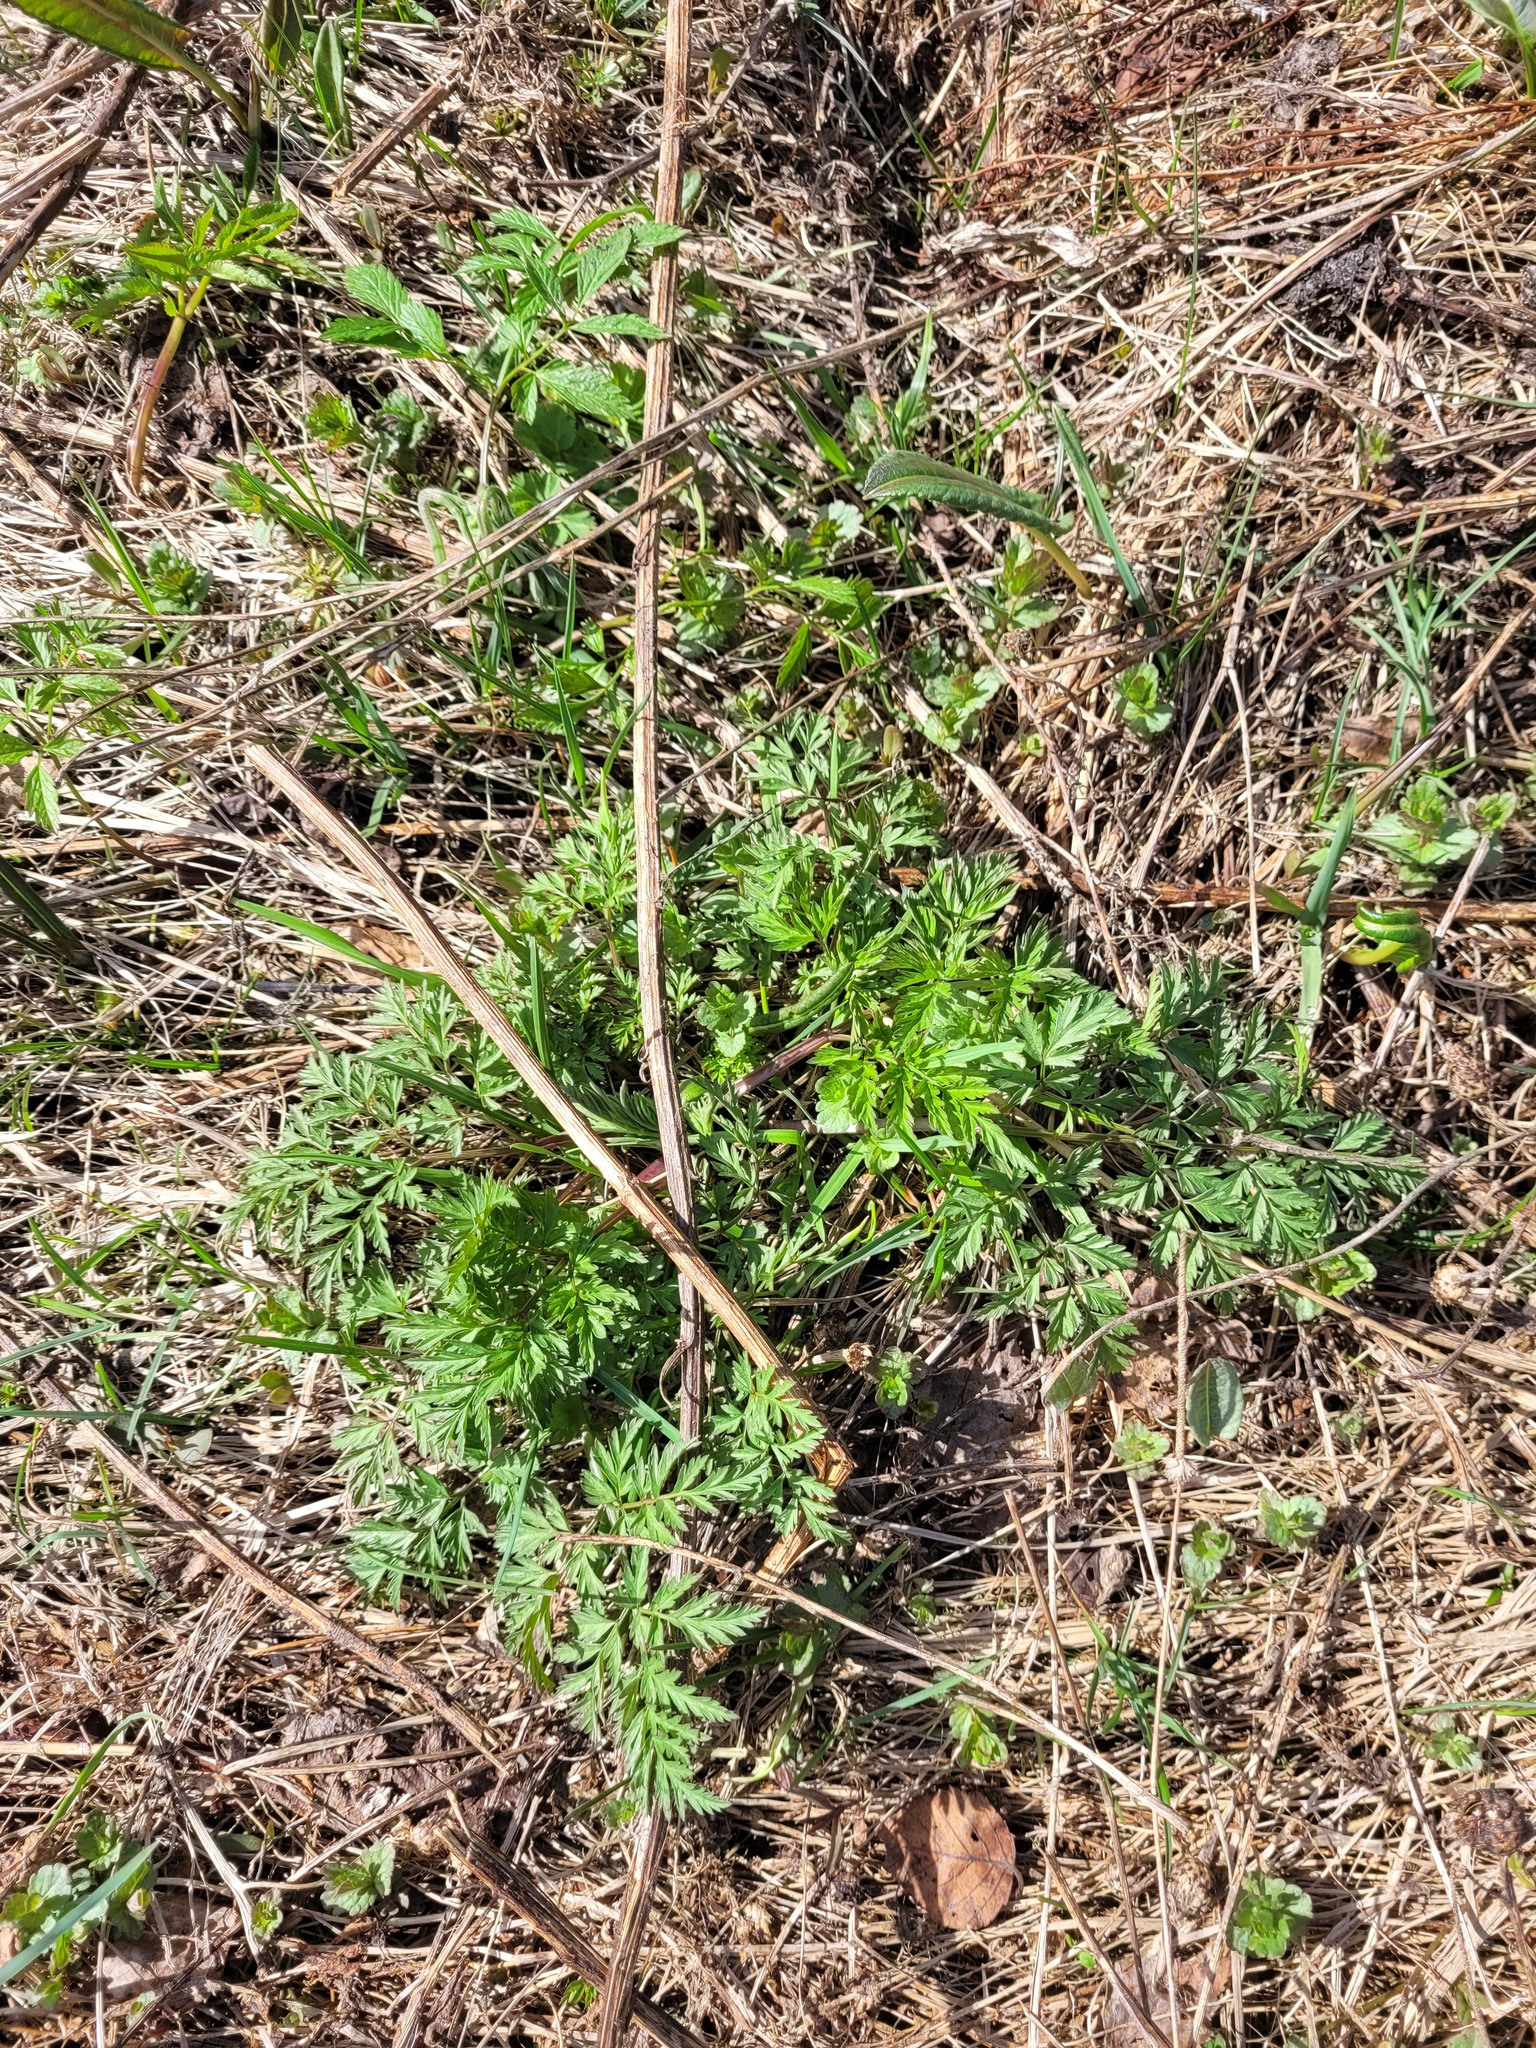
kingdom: Plantae
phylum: Tracheophyta
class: Magnoliopsida
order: Apiales
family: Apiaceae
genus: Anthriscus
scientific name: Anthriscus sylvestris
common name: Cow parsley
